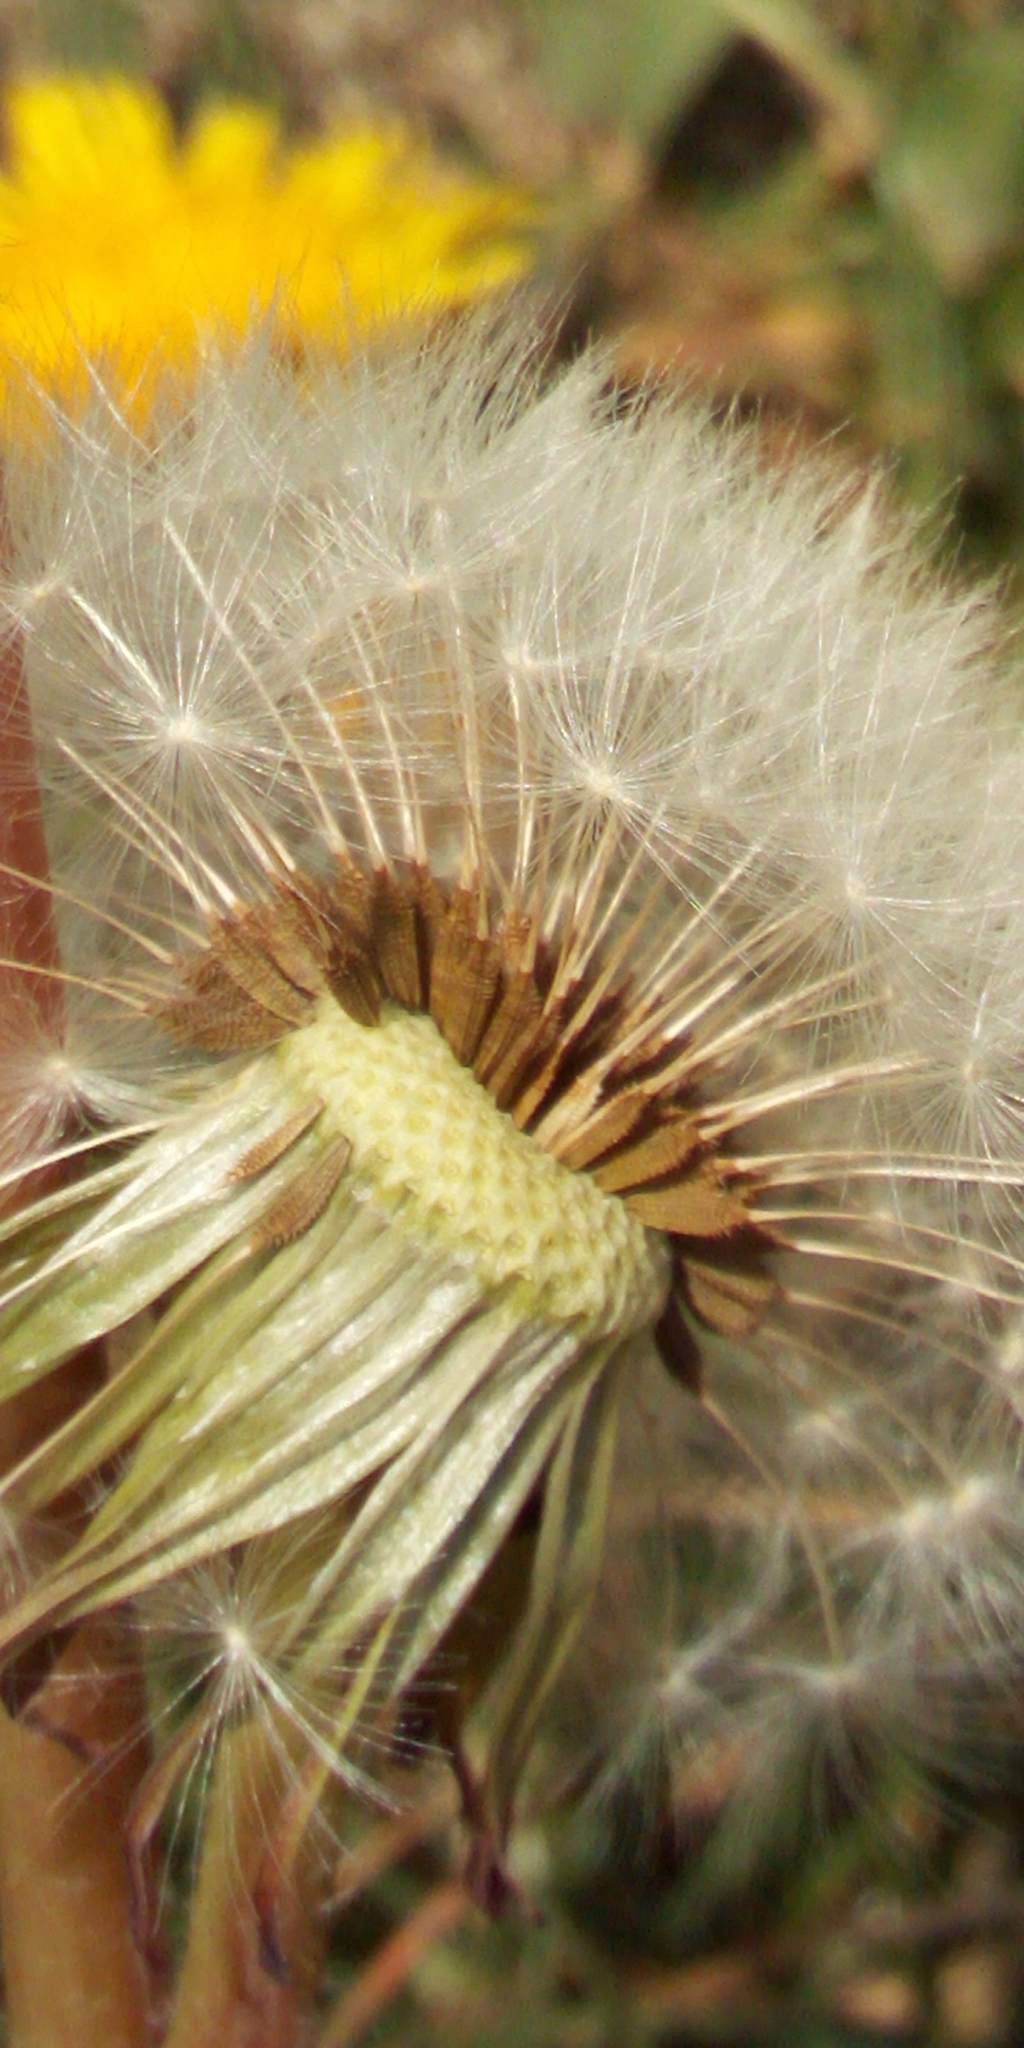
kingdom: Plantae
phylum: Tracheophyta
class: Magnoliopsida
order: Asterales
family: Asteraceae
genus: Taraxacum
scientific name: Taraxacum officinale
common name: Common dandelion
